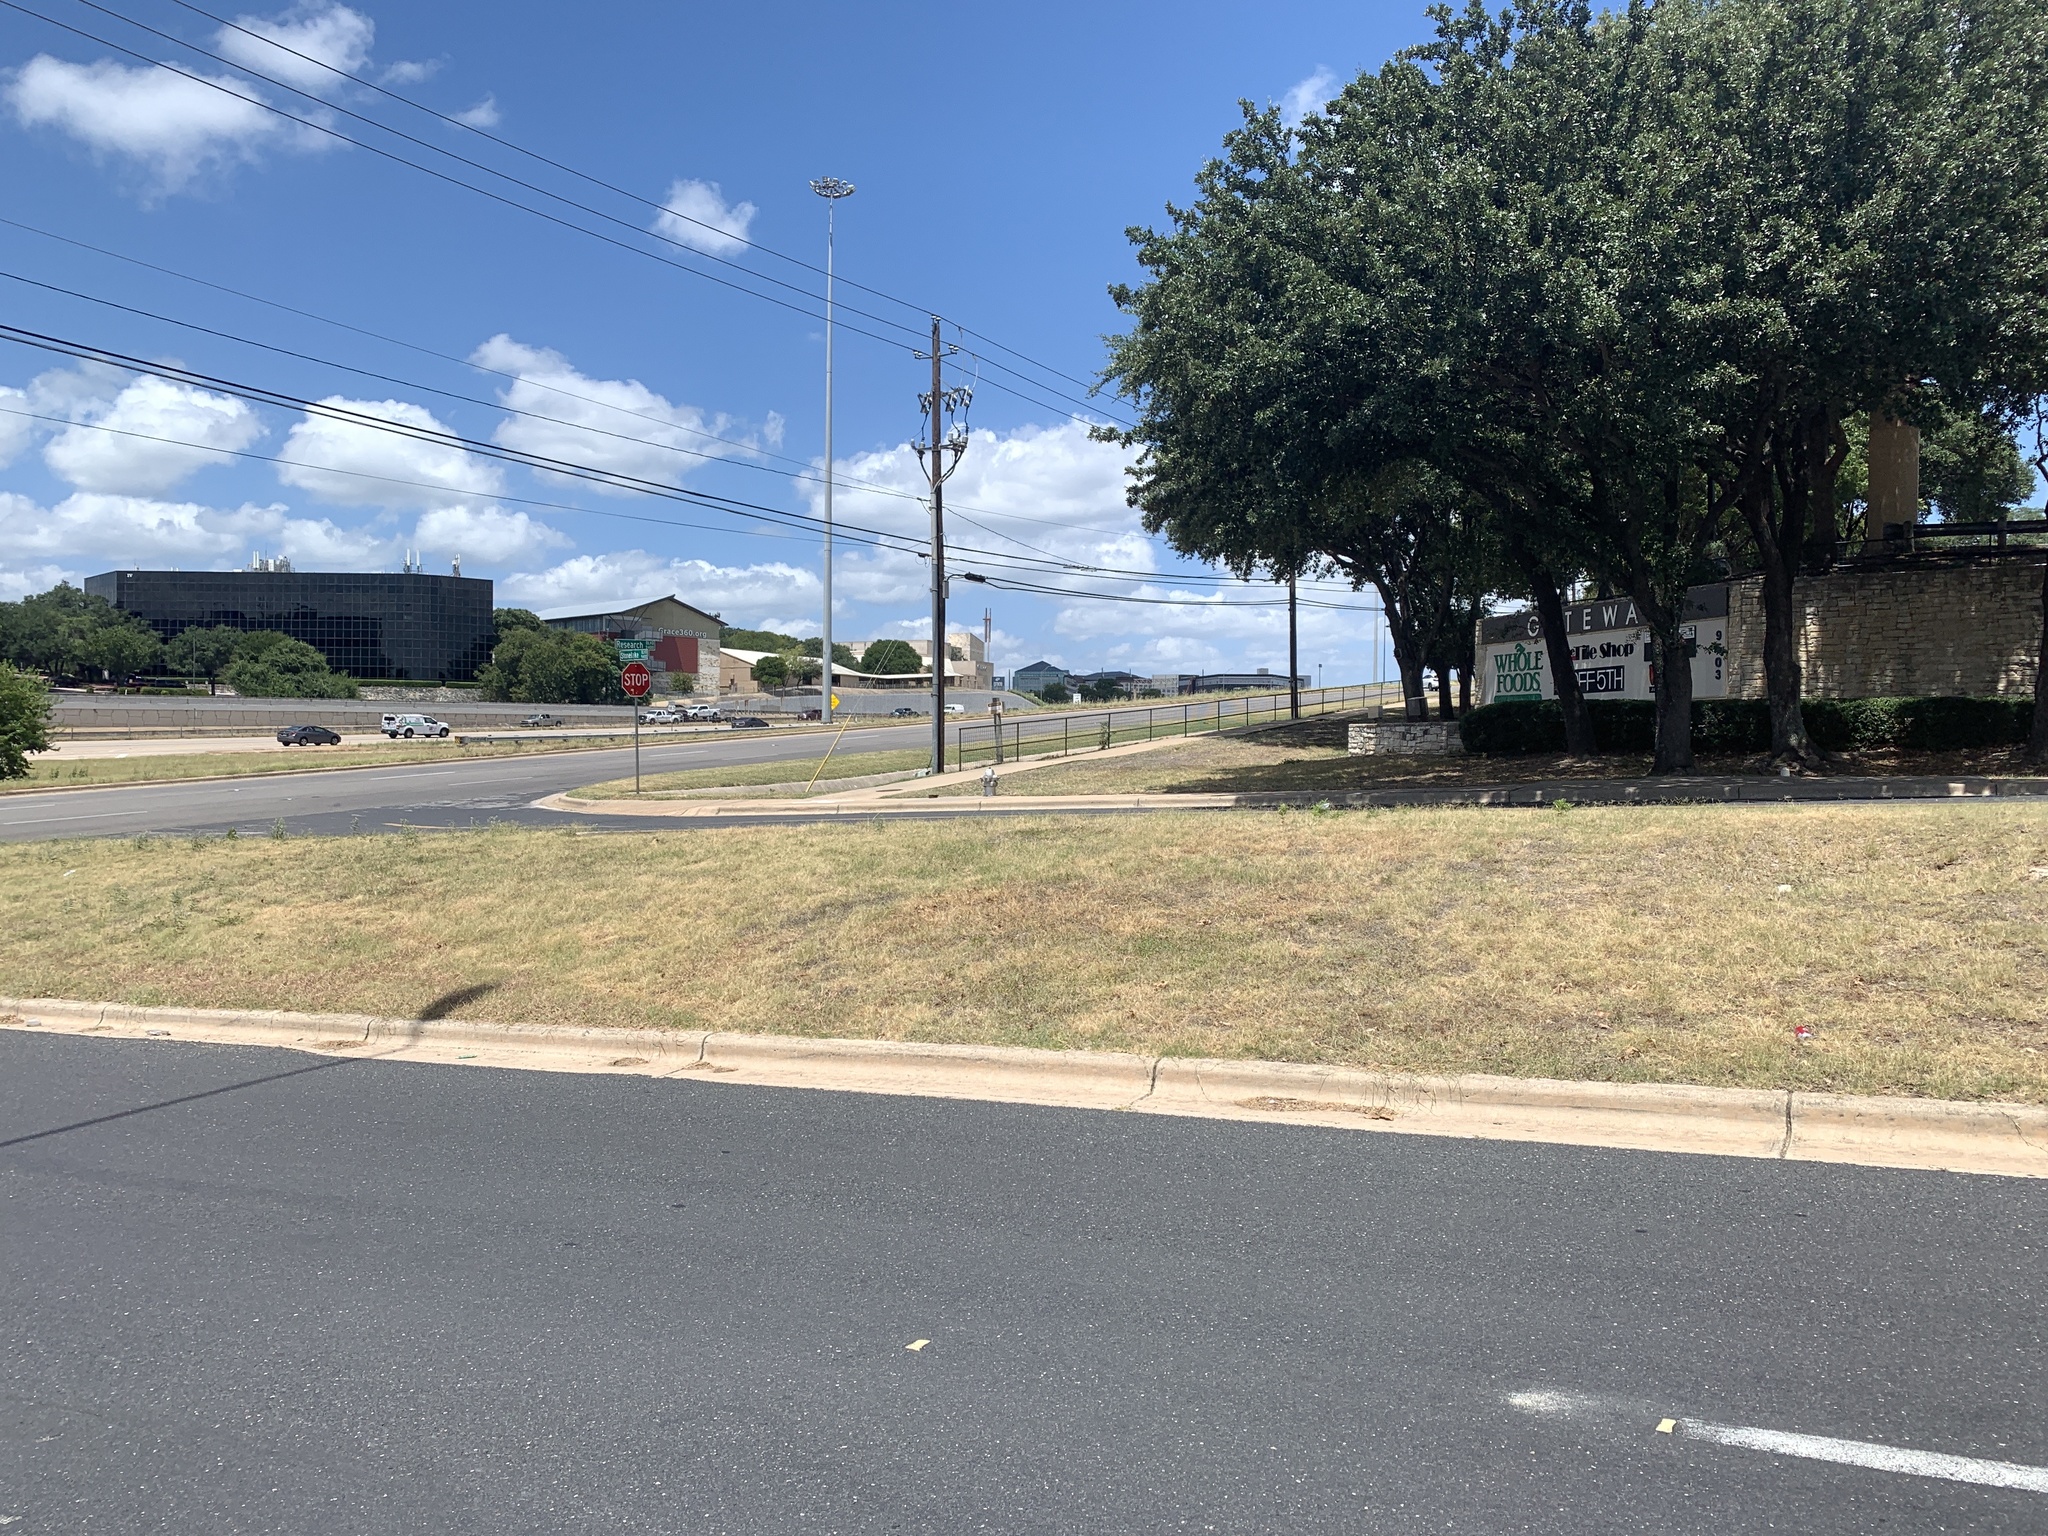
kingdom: Plantae
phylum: Tracheophyta
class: Magnoliopsida
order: Gentianales
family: Apocynaceae
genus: Asclepias
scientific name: Asclepias oenotheroides
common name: Zizotes milkweed
